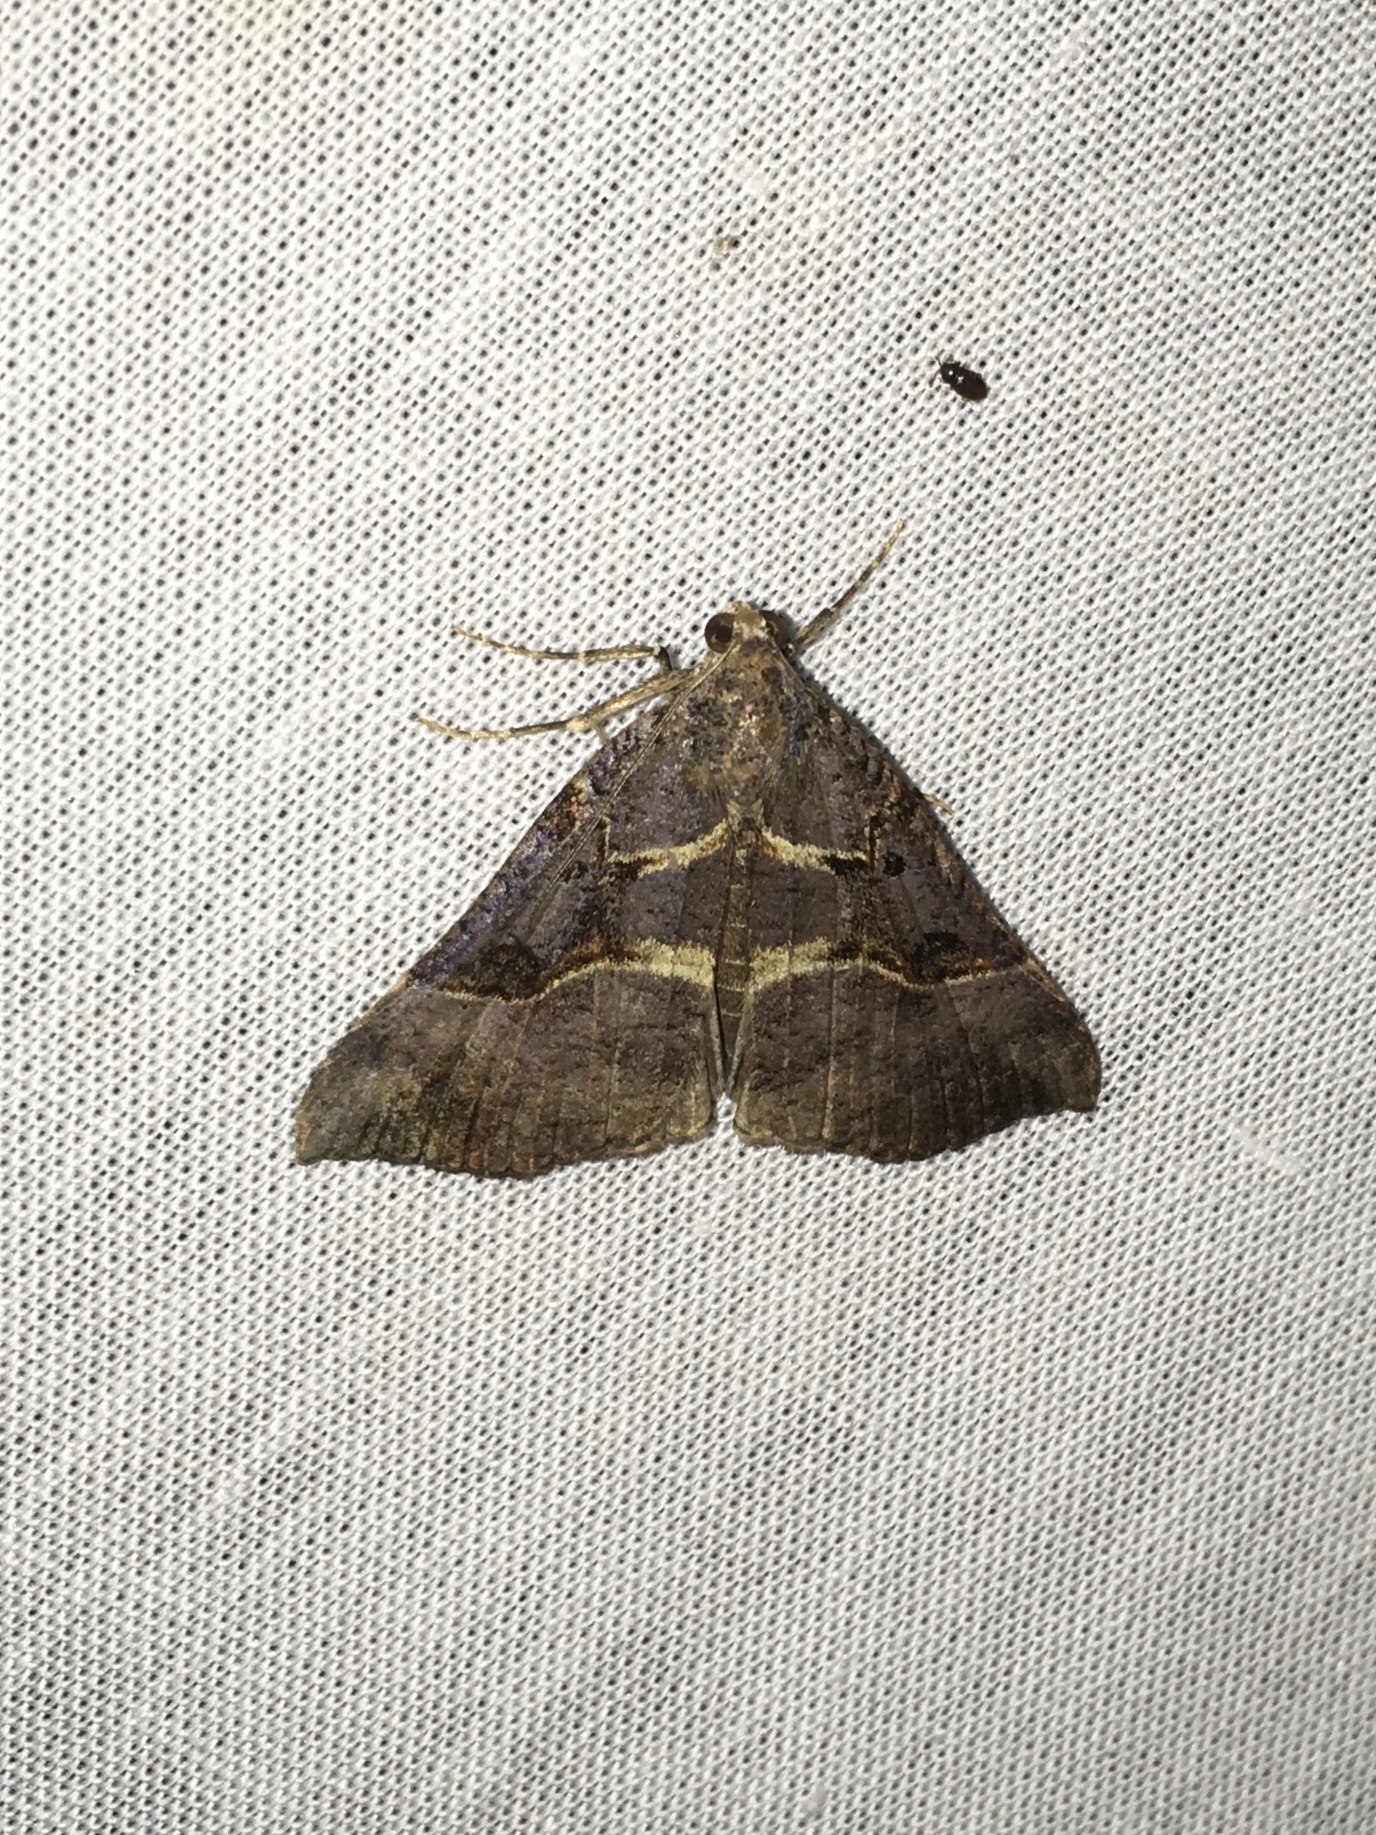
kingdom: Animalia
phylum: Arthropoda
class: Insecta
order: Lepidoptera
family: Erebidae
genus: Hypena
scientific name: Hypena edictalis
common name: Large snout
